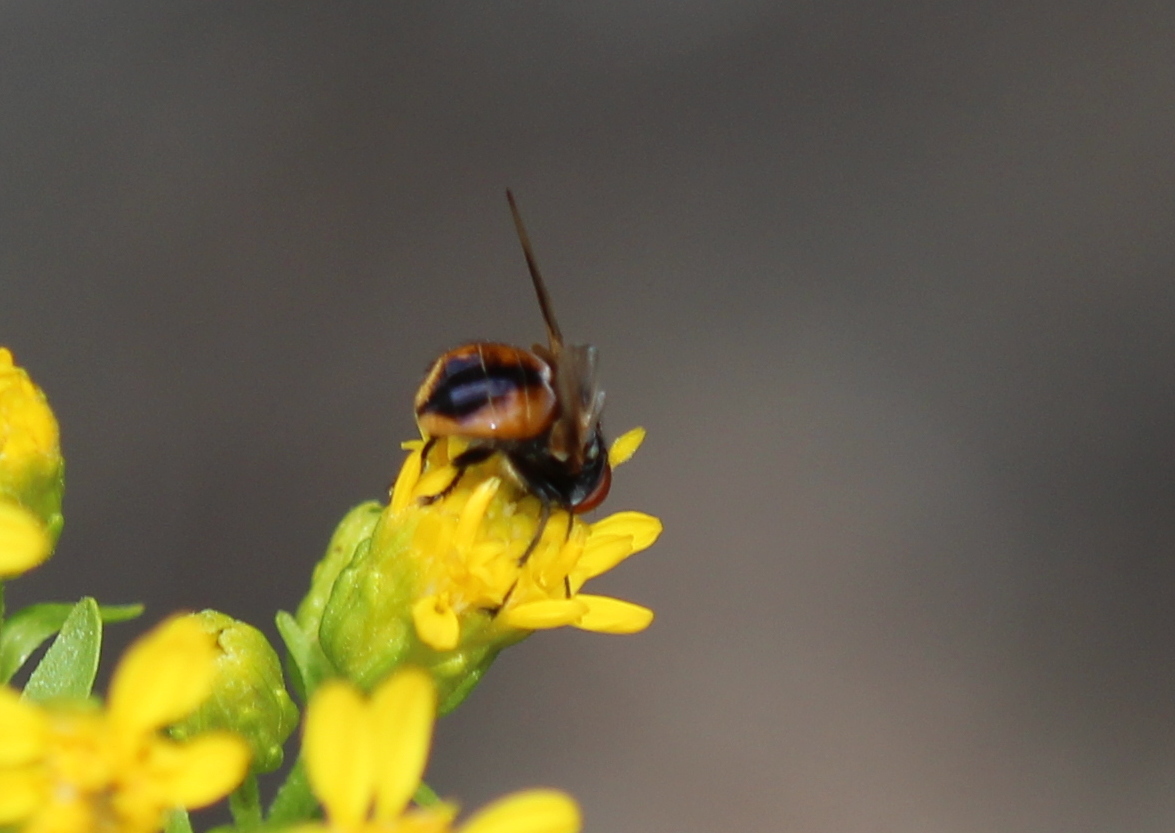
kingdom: Animalia
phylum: Arthropoda
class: Insecta
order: Diptera
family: Tachinidae
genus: Phasia
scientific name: Phasia aurulans
